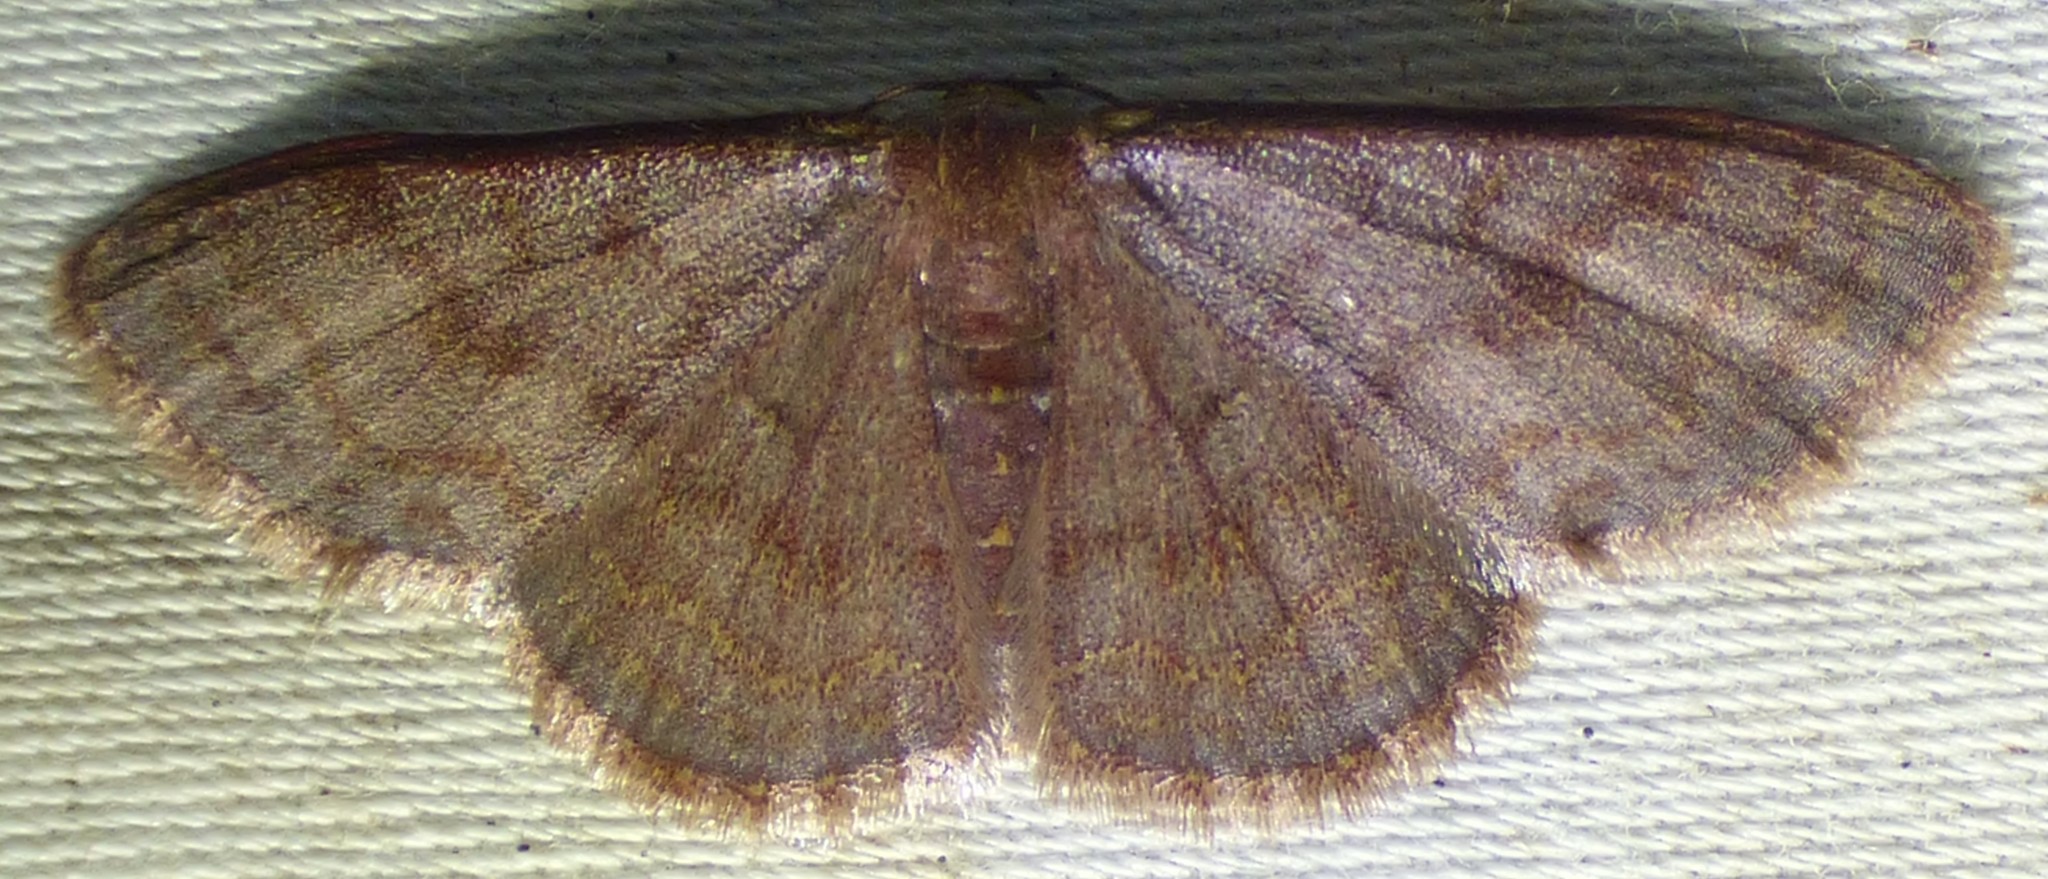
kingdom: Animalia
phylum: Arthropoda
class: Insecta
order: Lepidoptera
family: Geometridae
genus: Leptostales
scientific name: Leptostales pannaria
